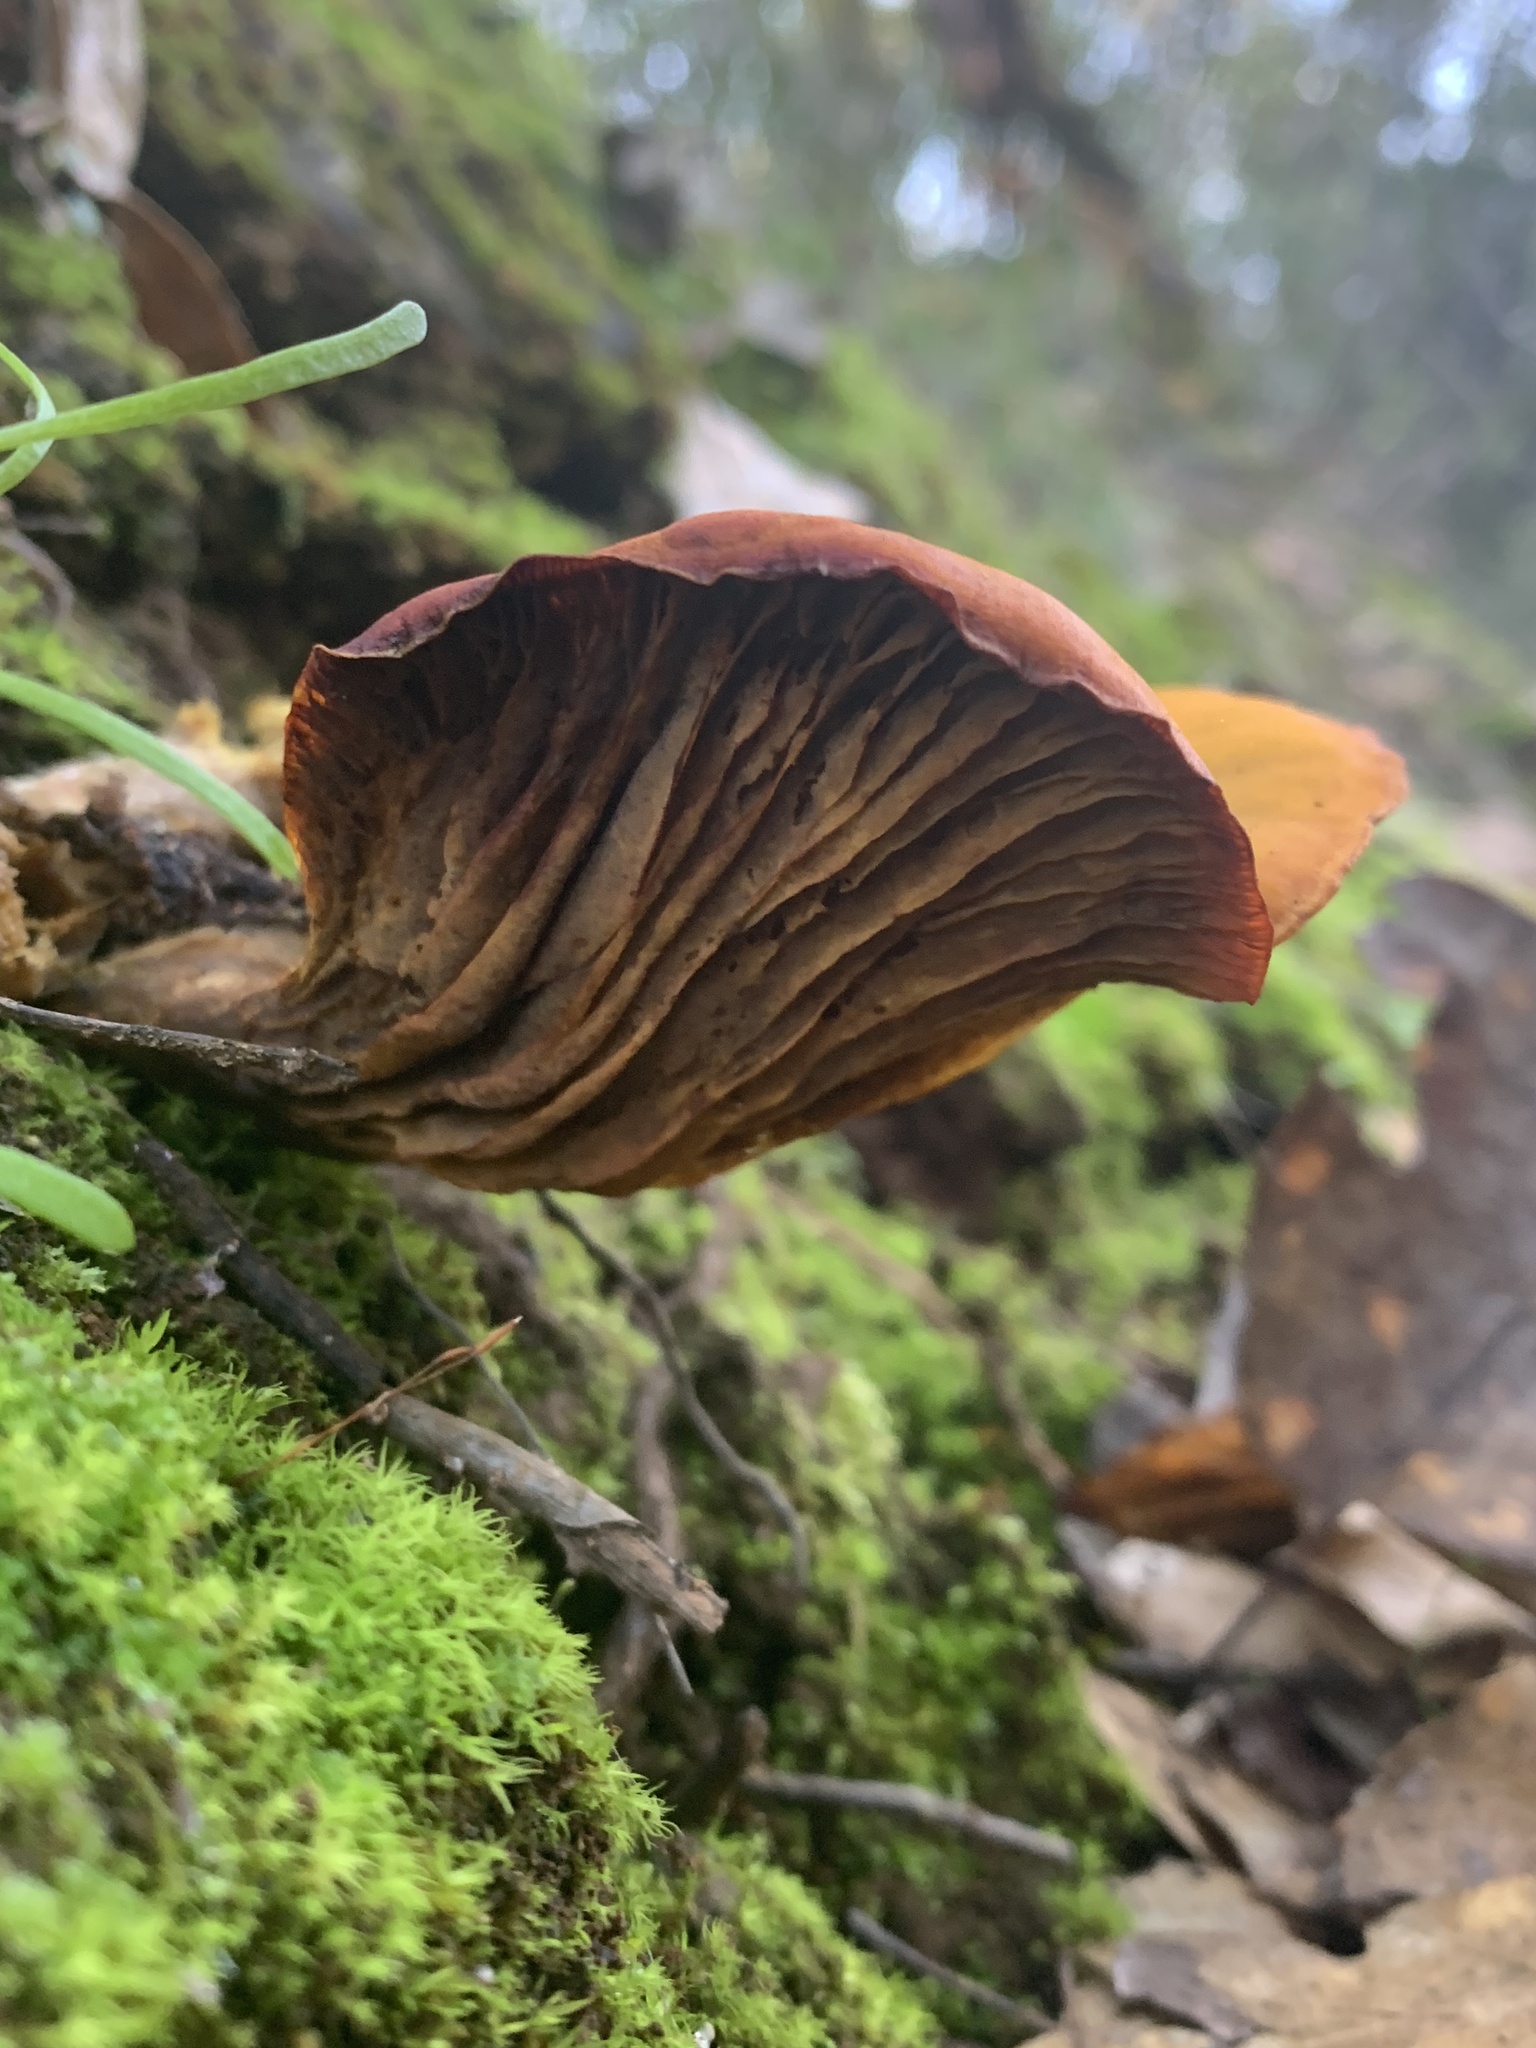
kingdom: Fungi
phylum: Basidiomycota
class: Agaricomycetes
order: Agaricales
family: Omphalotaceae
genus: Omphalotus
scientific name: Omphalotus olivascens
